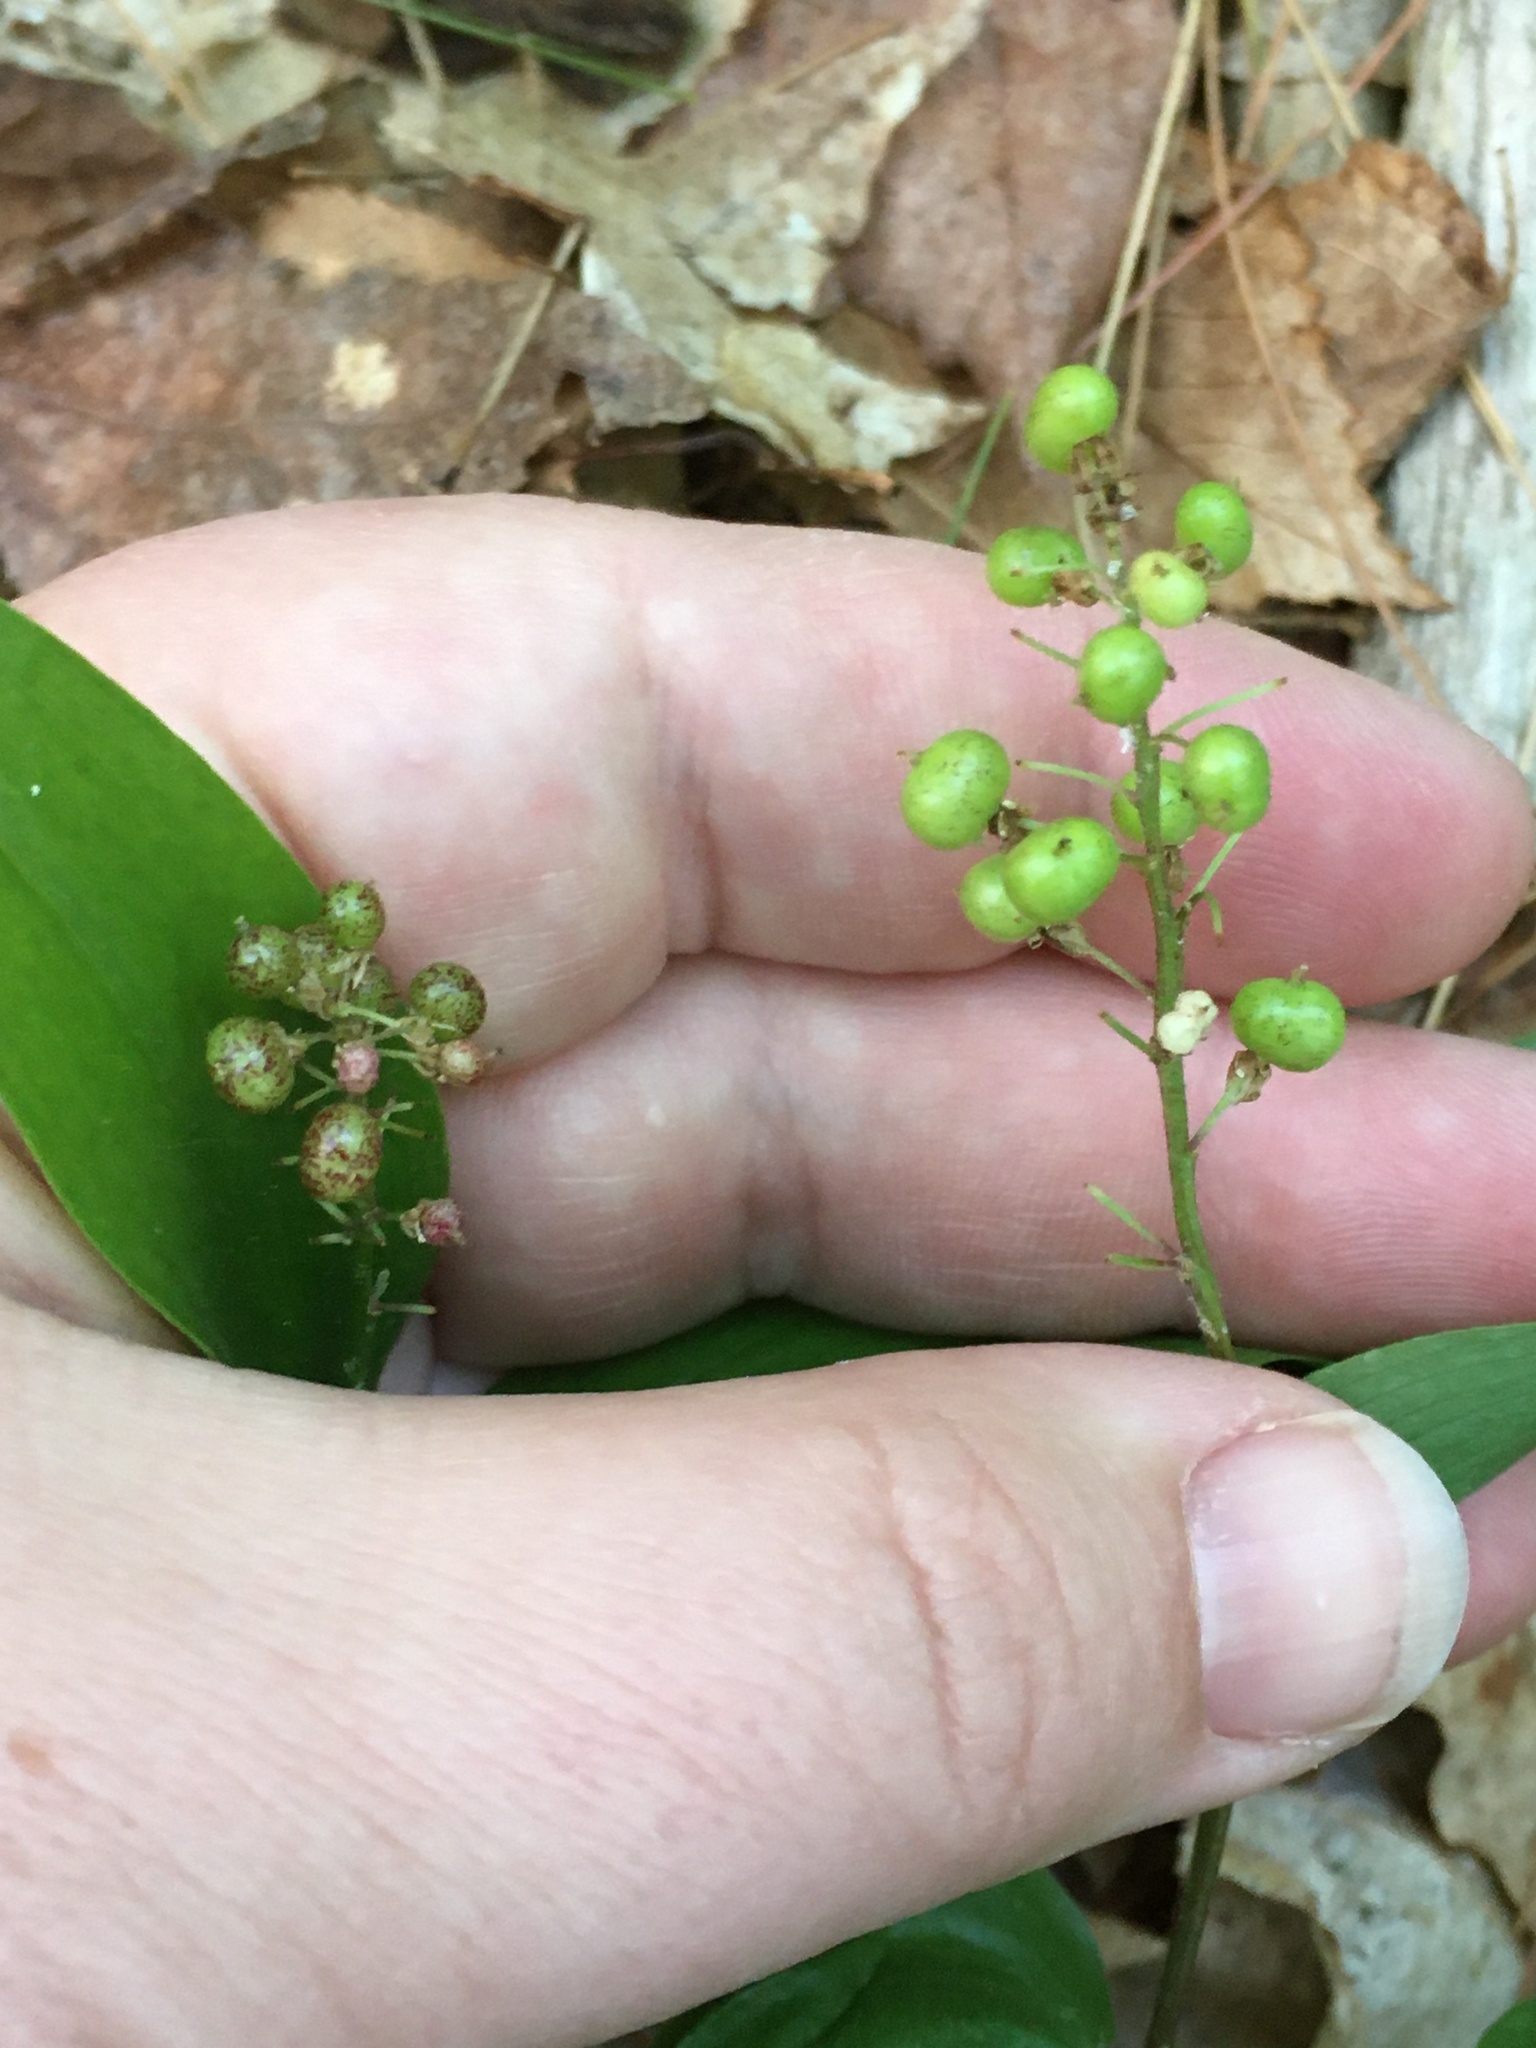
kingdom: Plantae
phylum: Tracheophyta
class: Liliopsida
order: Asparagales
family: Asparagaceae
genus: Maianthemum
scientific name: Maianthemum canadense
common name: False lily-of-the-valley
